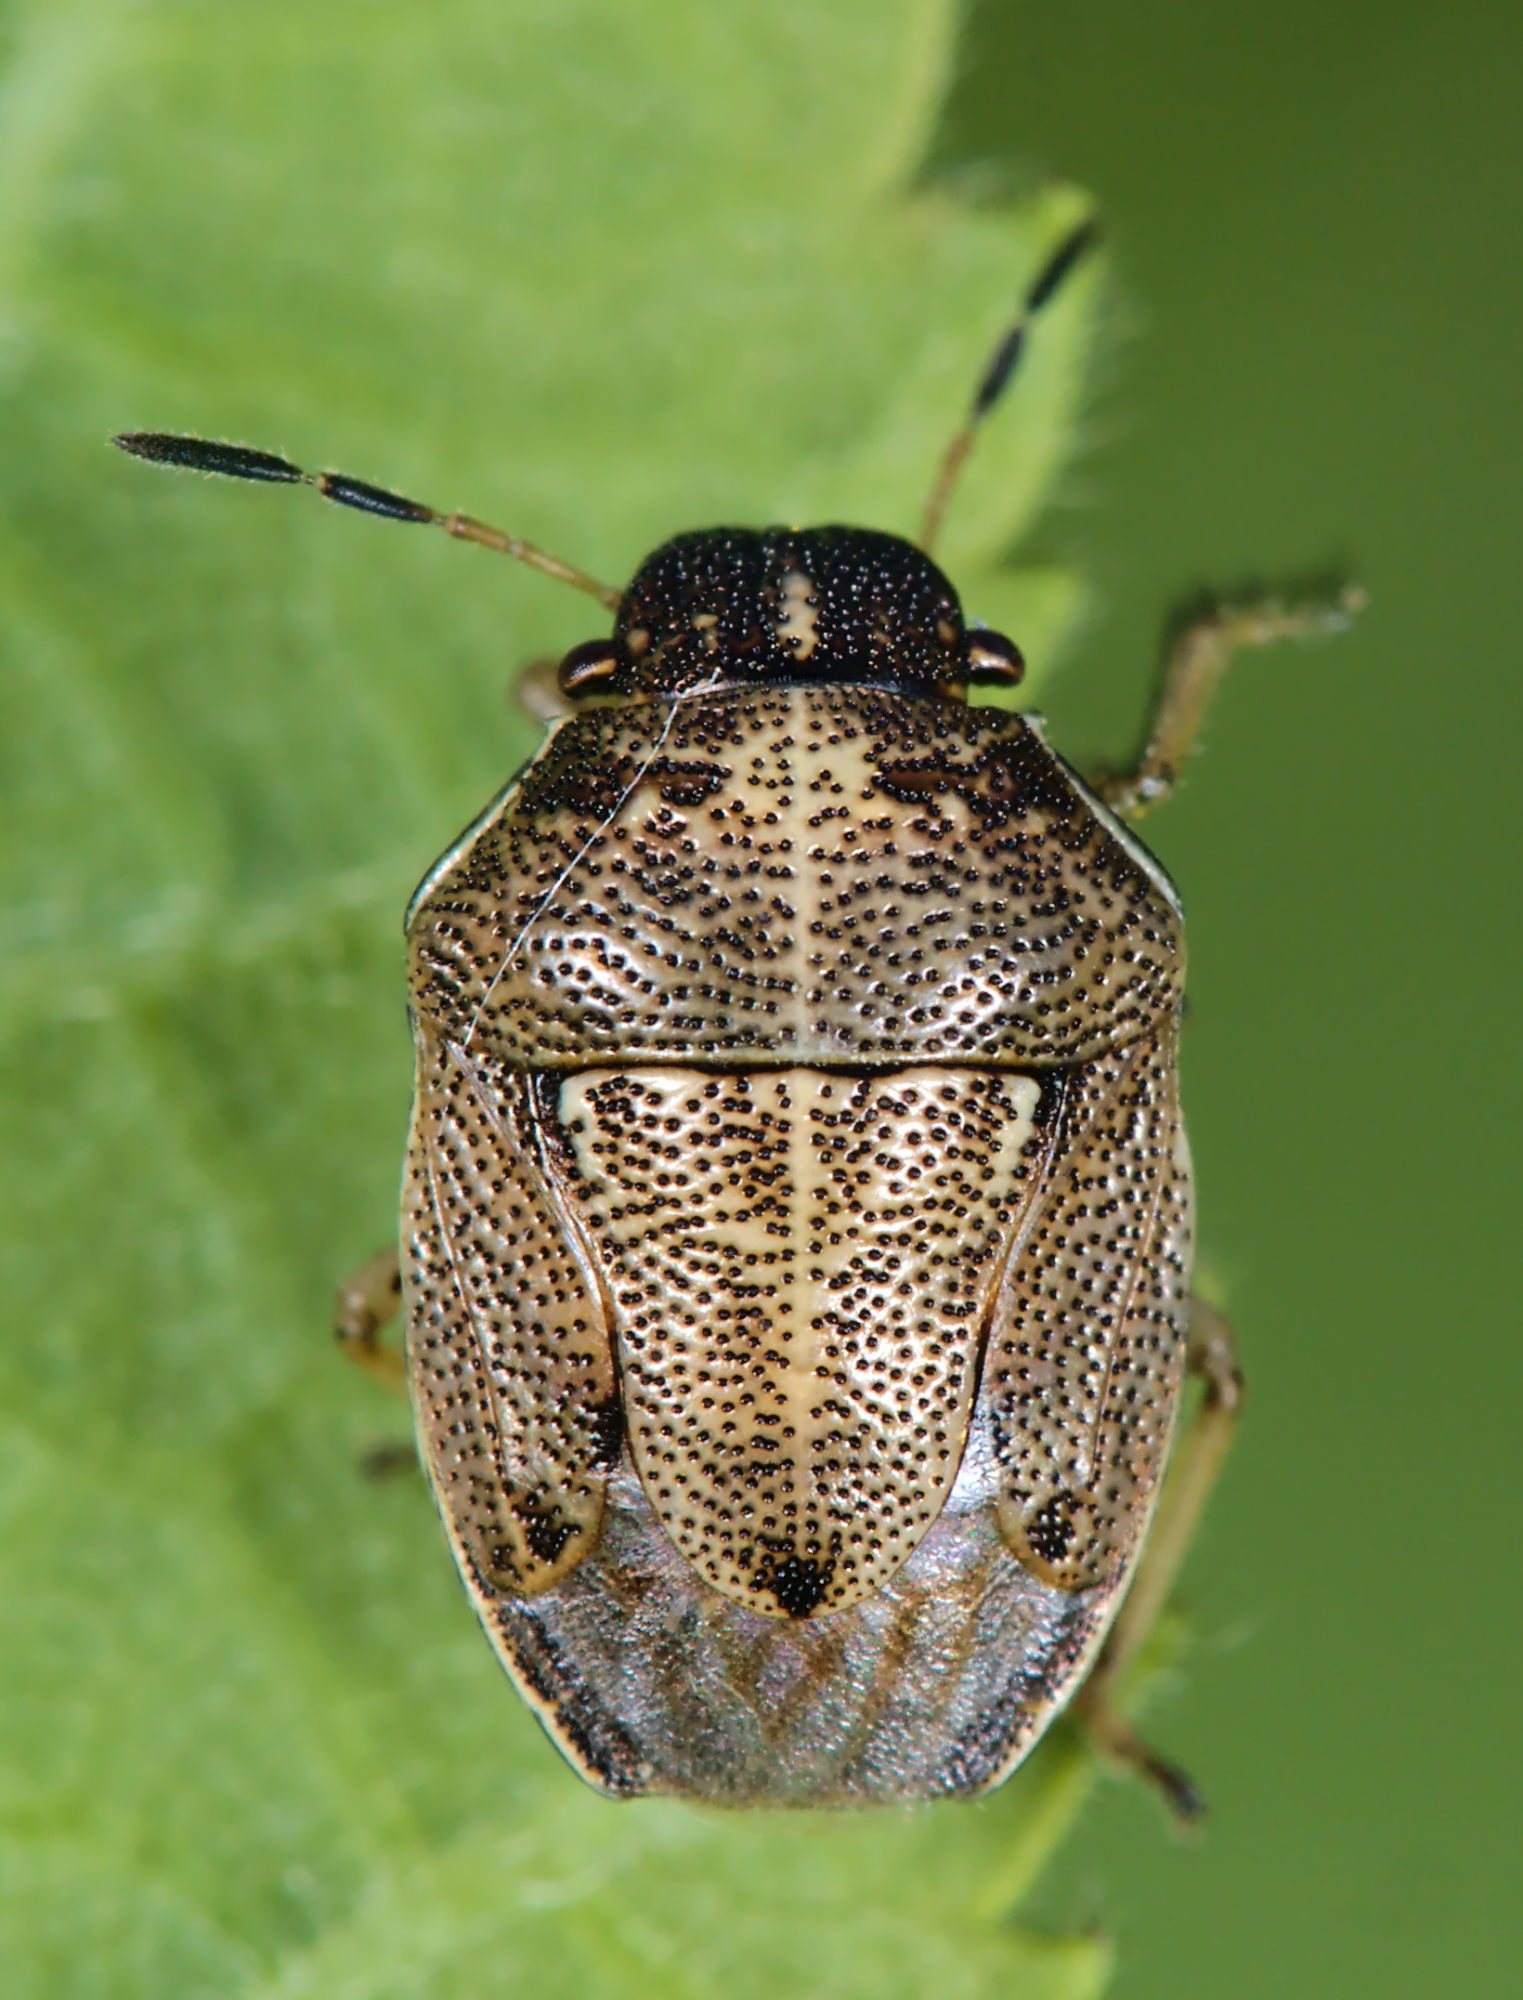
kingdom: Animalia
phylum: Arthropoda
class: Insecta
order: Hemiptera
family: Pentatomidae
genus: Neottiglossa
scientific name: Neottiglossa pusilla
